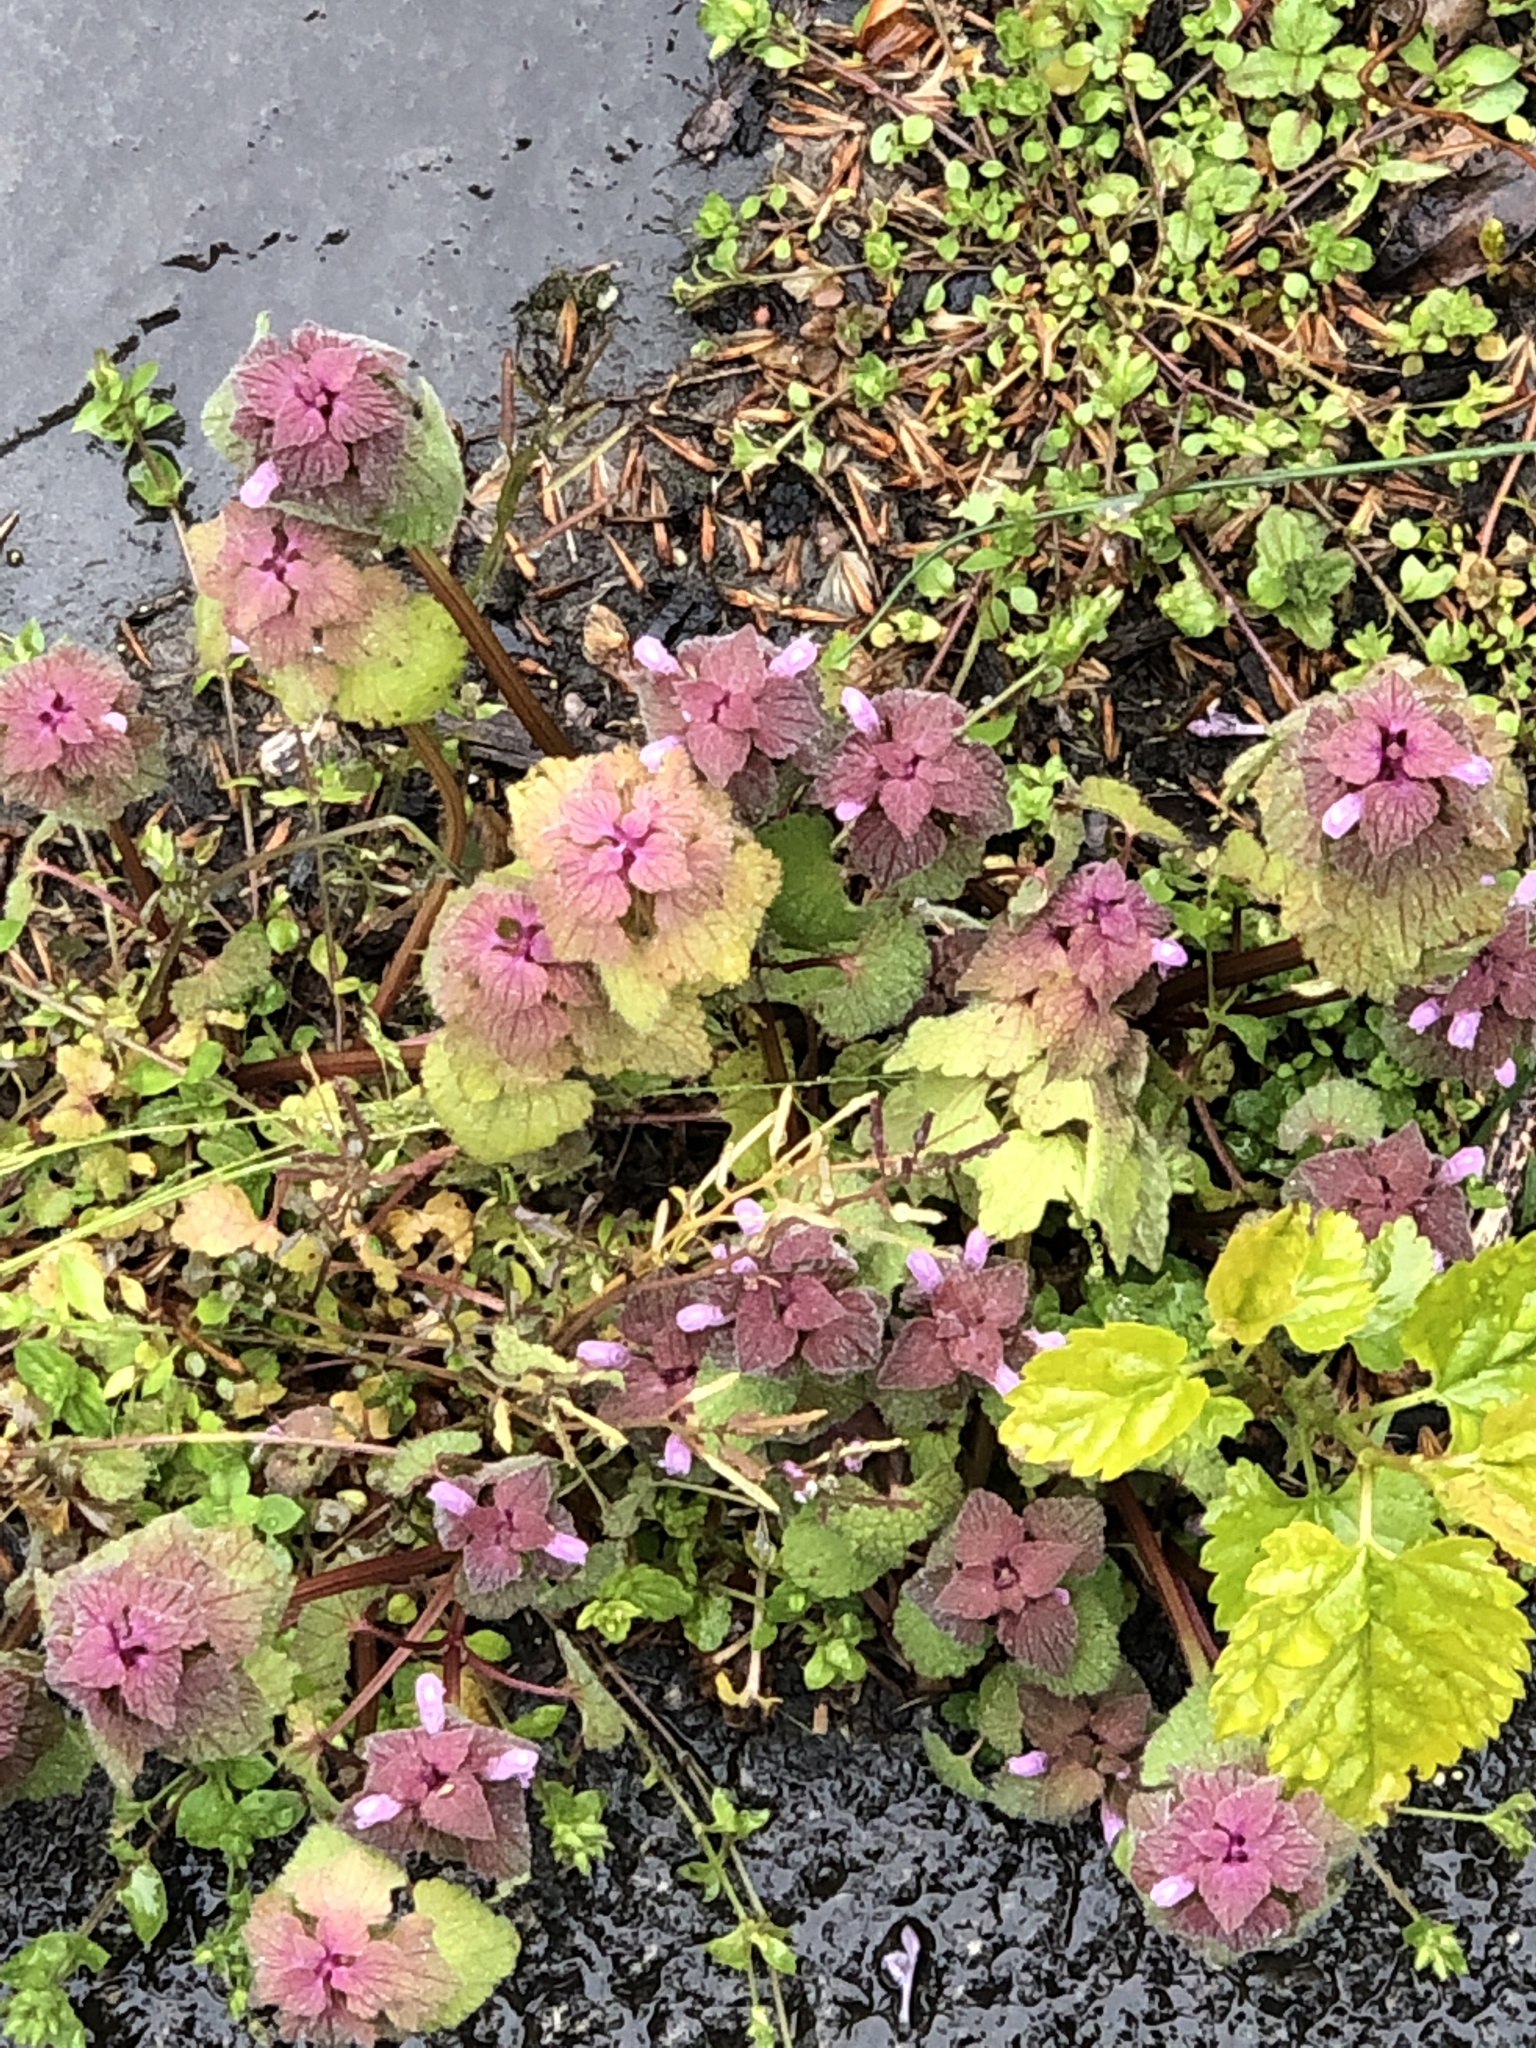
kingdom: Plantae
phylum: Tracheophyta
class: Magnoliopsida
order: Lamiales
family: Lamiaceae
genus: Lamium
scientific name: Lamium purpureum
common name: Red dead-nettle
